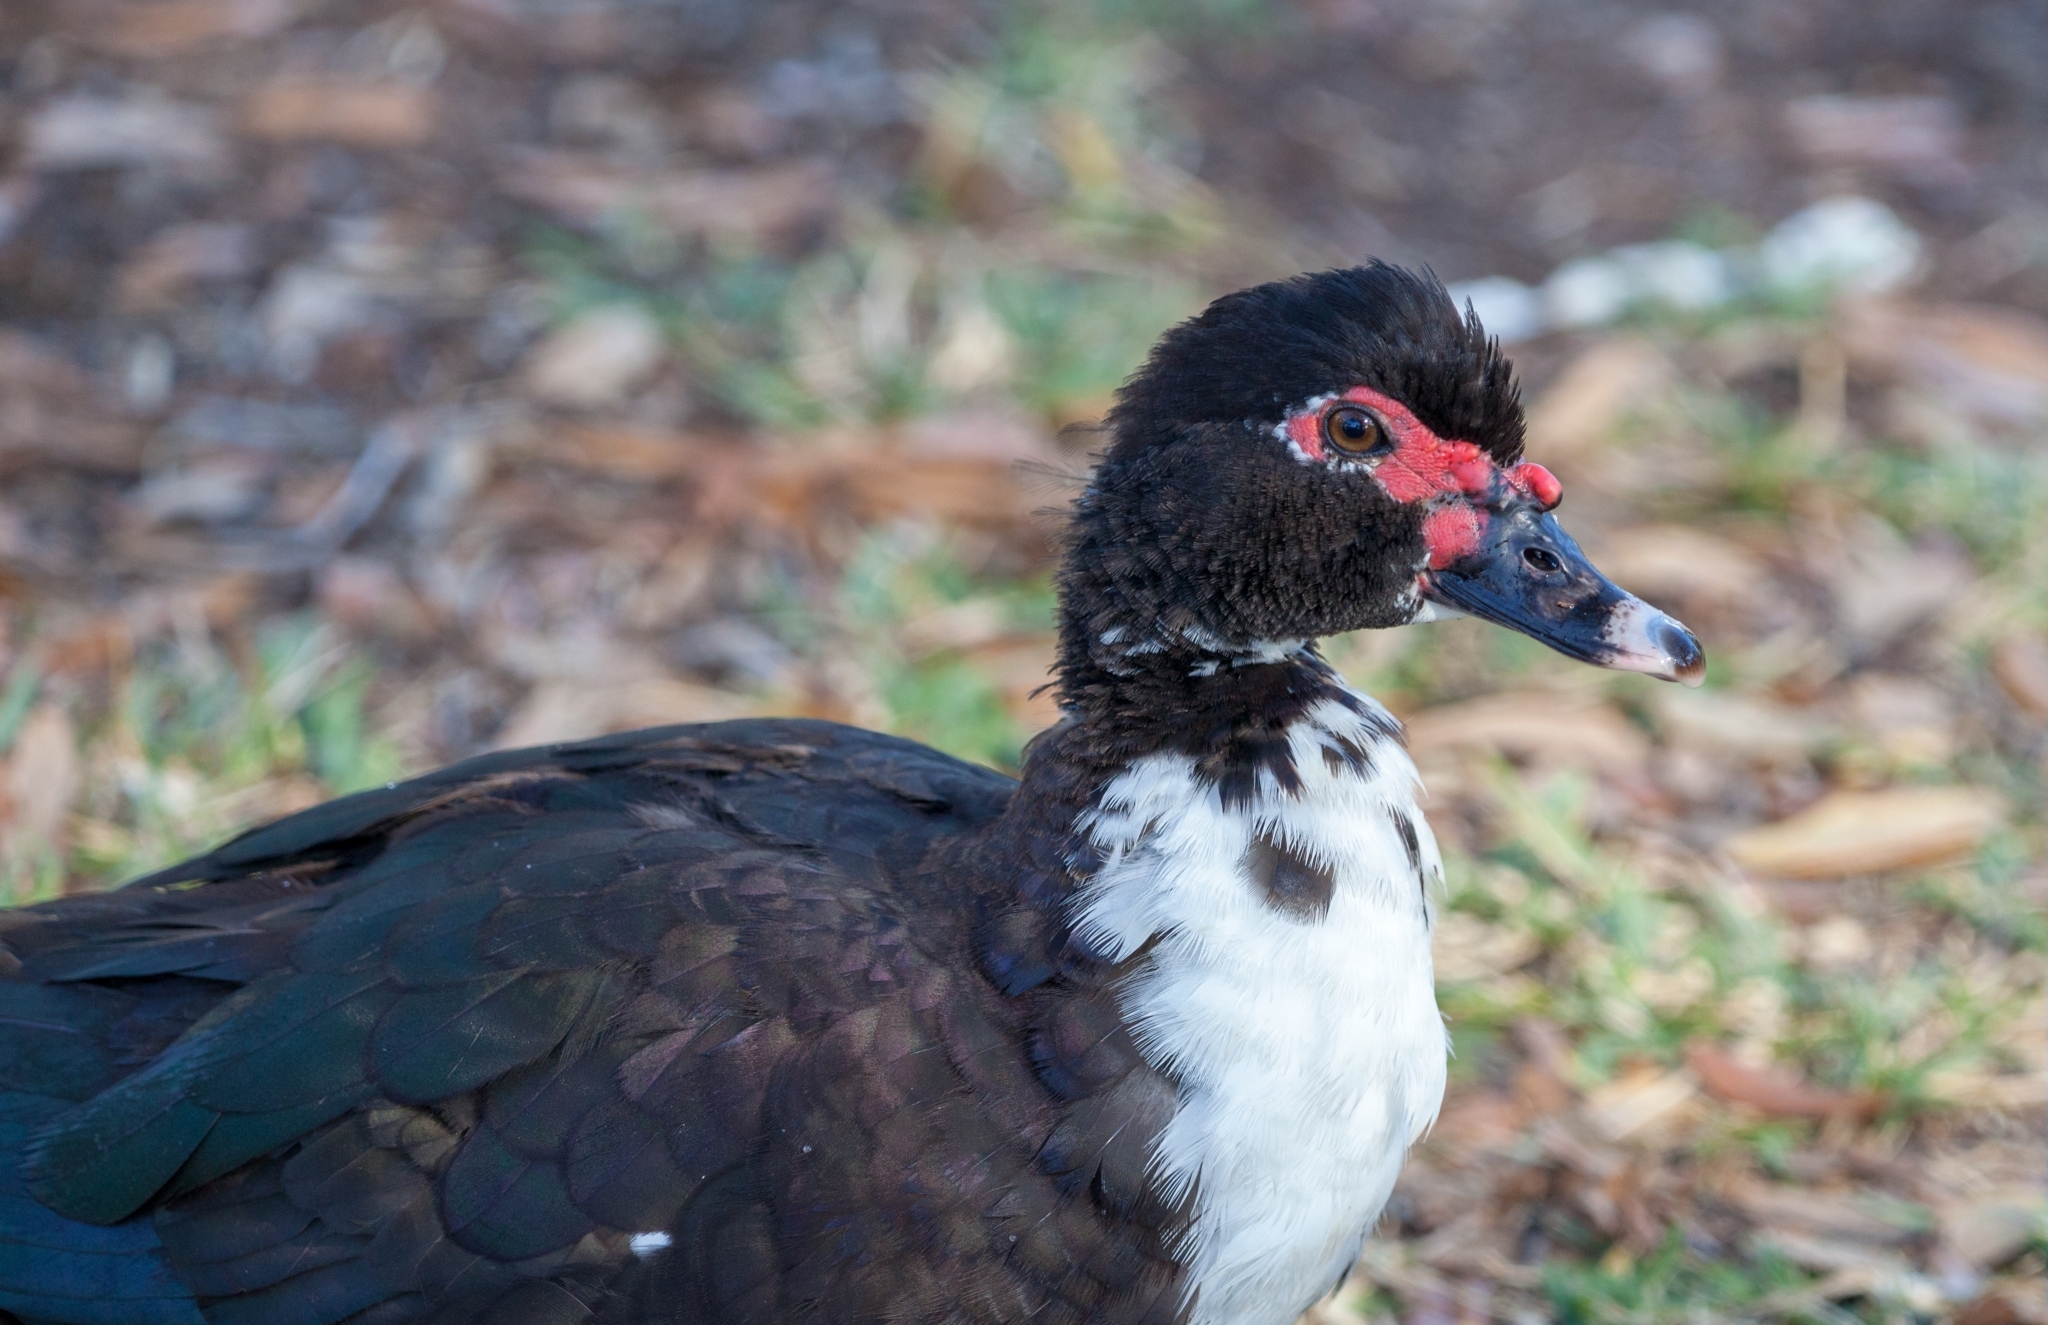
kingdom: Animalia
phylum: Chordata
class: Aves
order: Anseriformes
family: Anatidae
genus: Cairina
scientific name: Cairina moschata
